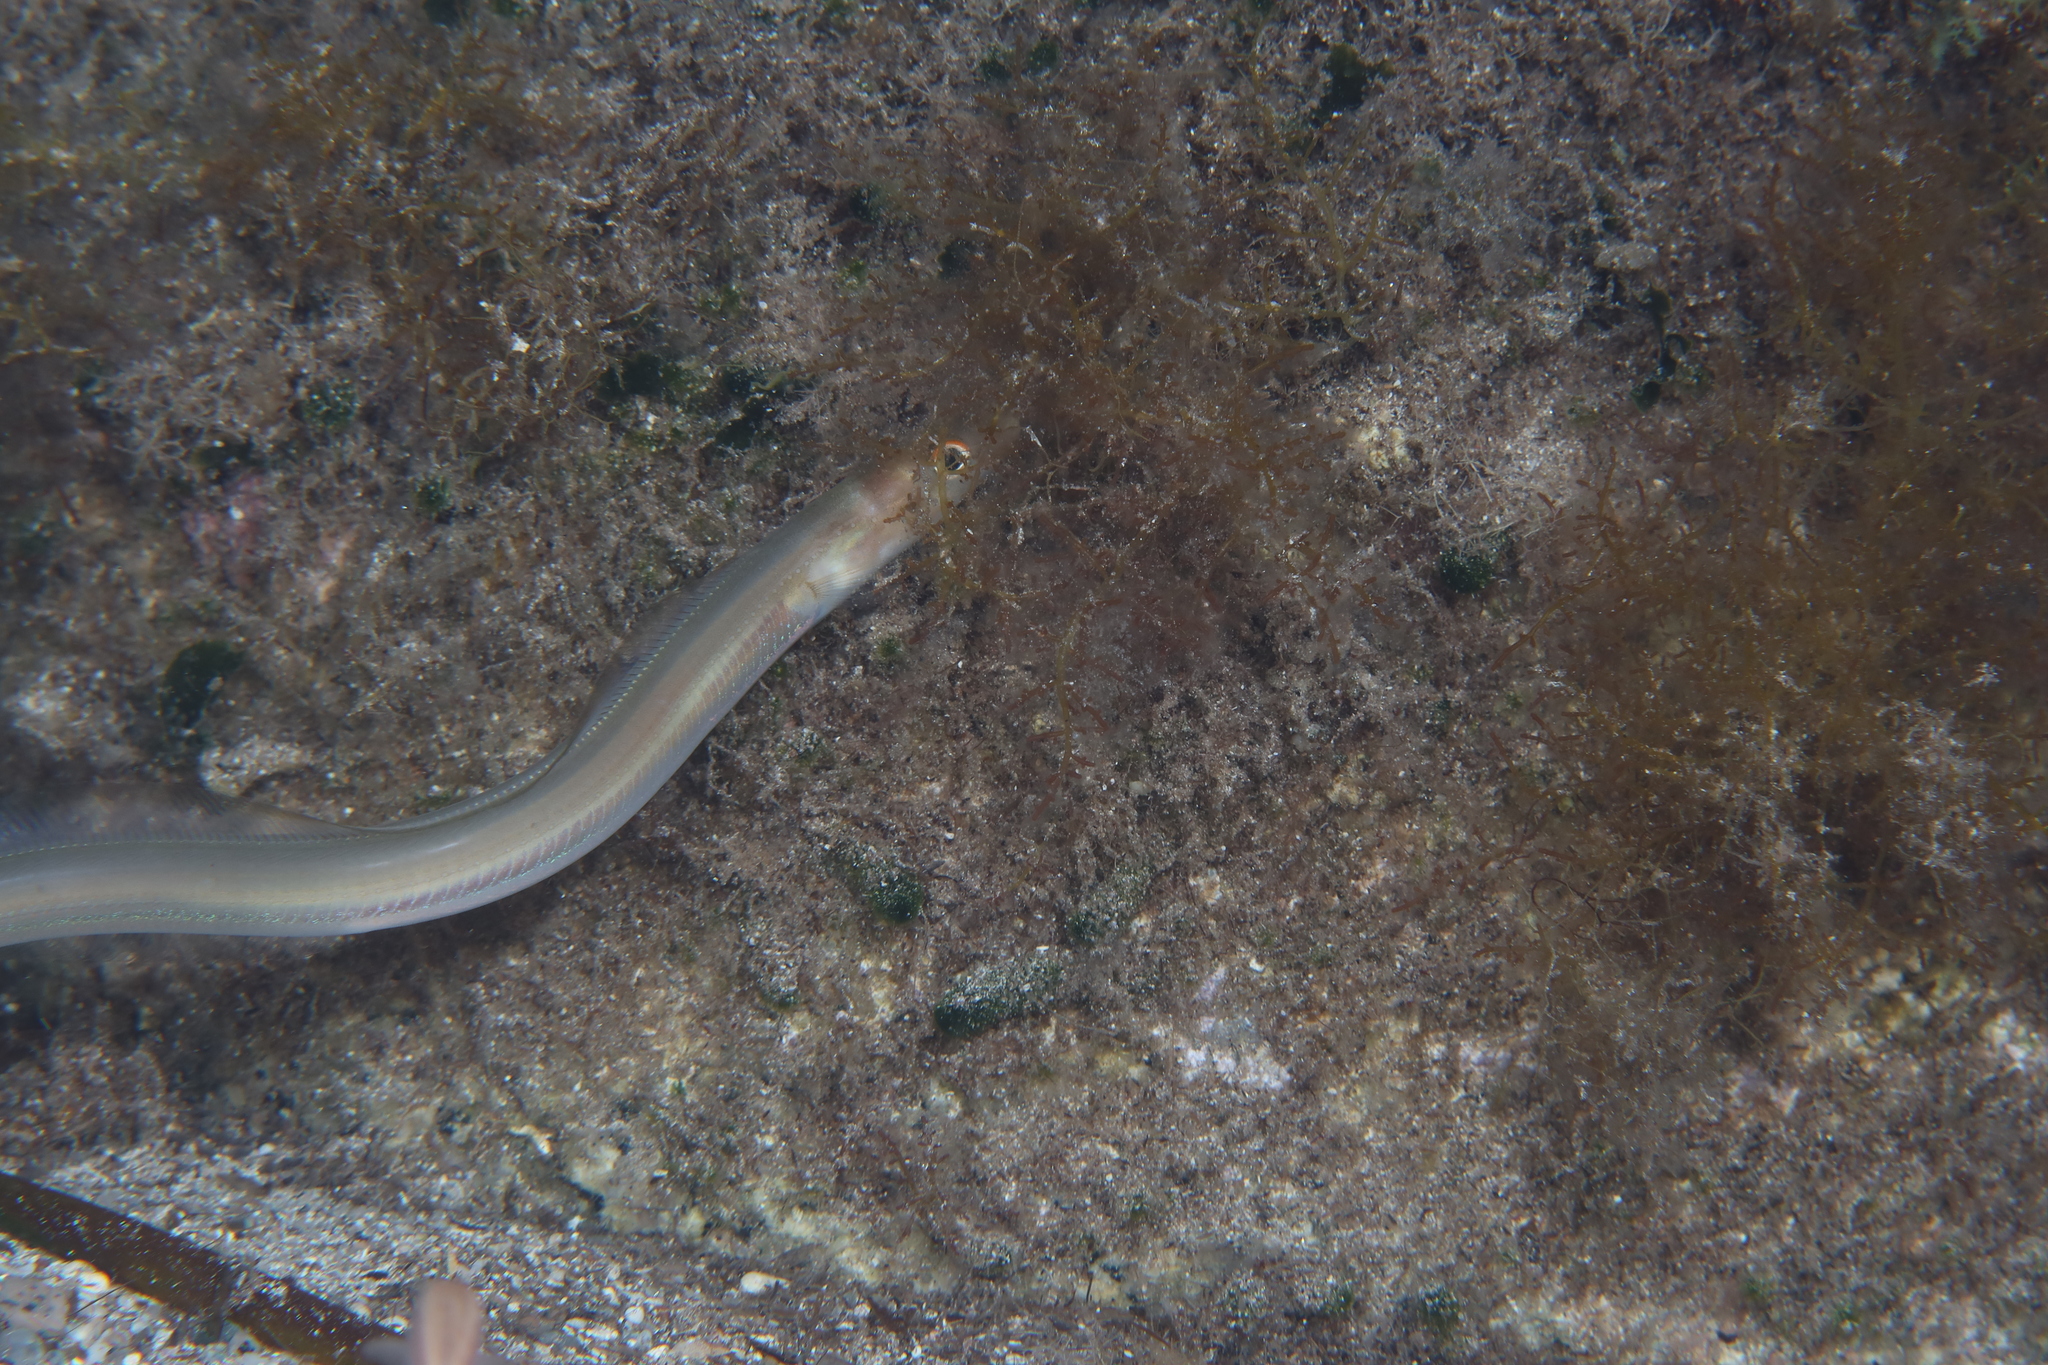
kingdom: Animalia
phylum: Chordata
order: Anguilliformes
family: Congridae
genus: Ariosoma
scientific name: Ariosoma balearicum
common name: Bandtooth conger
